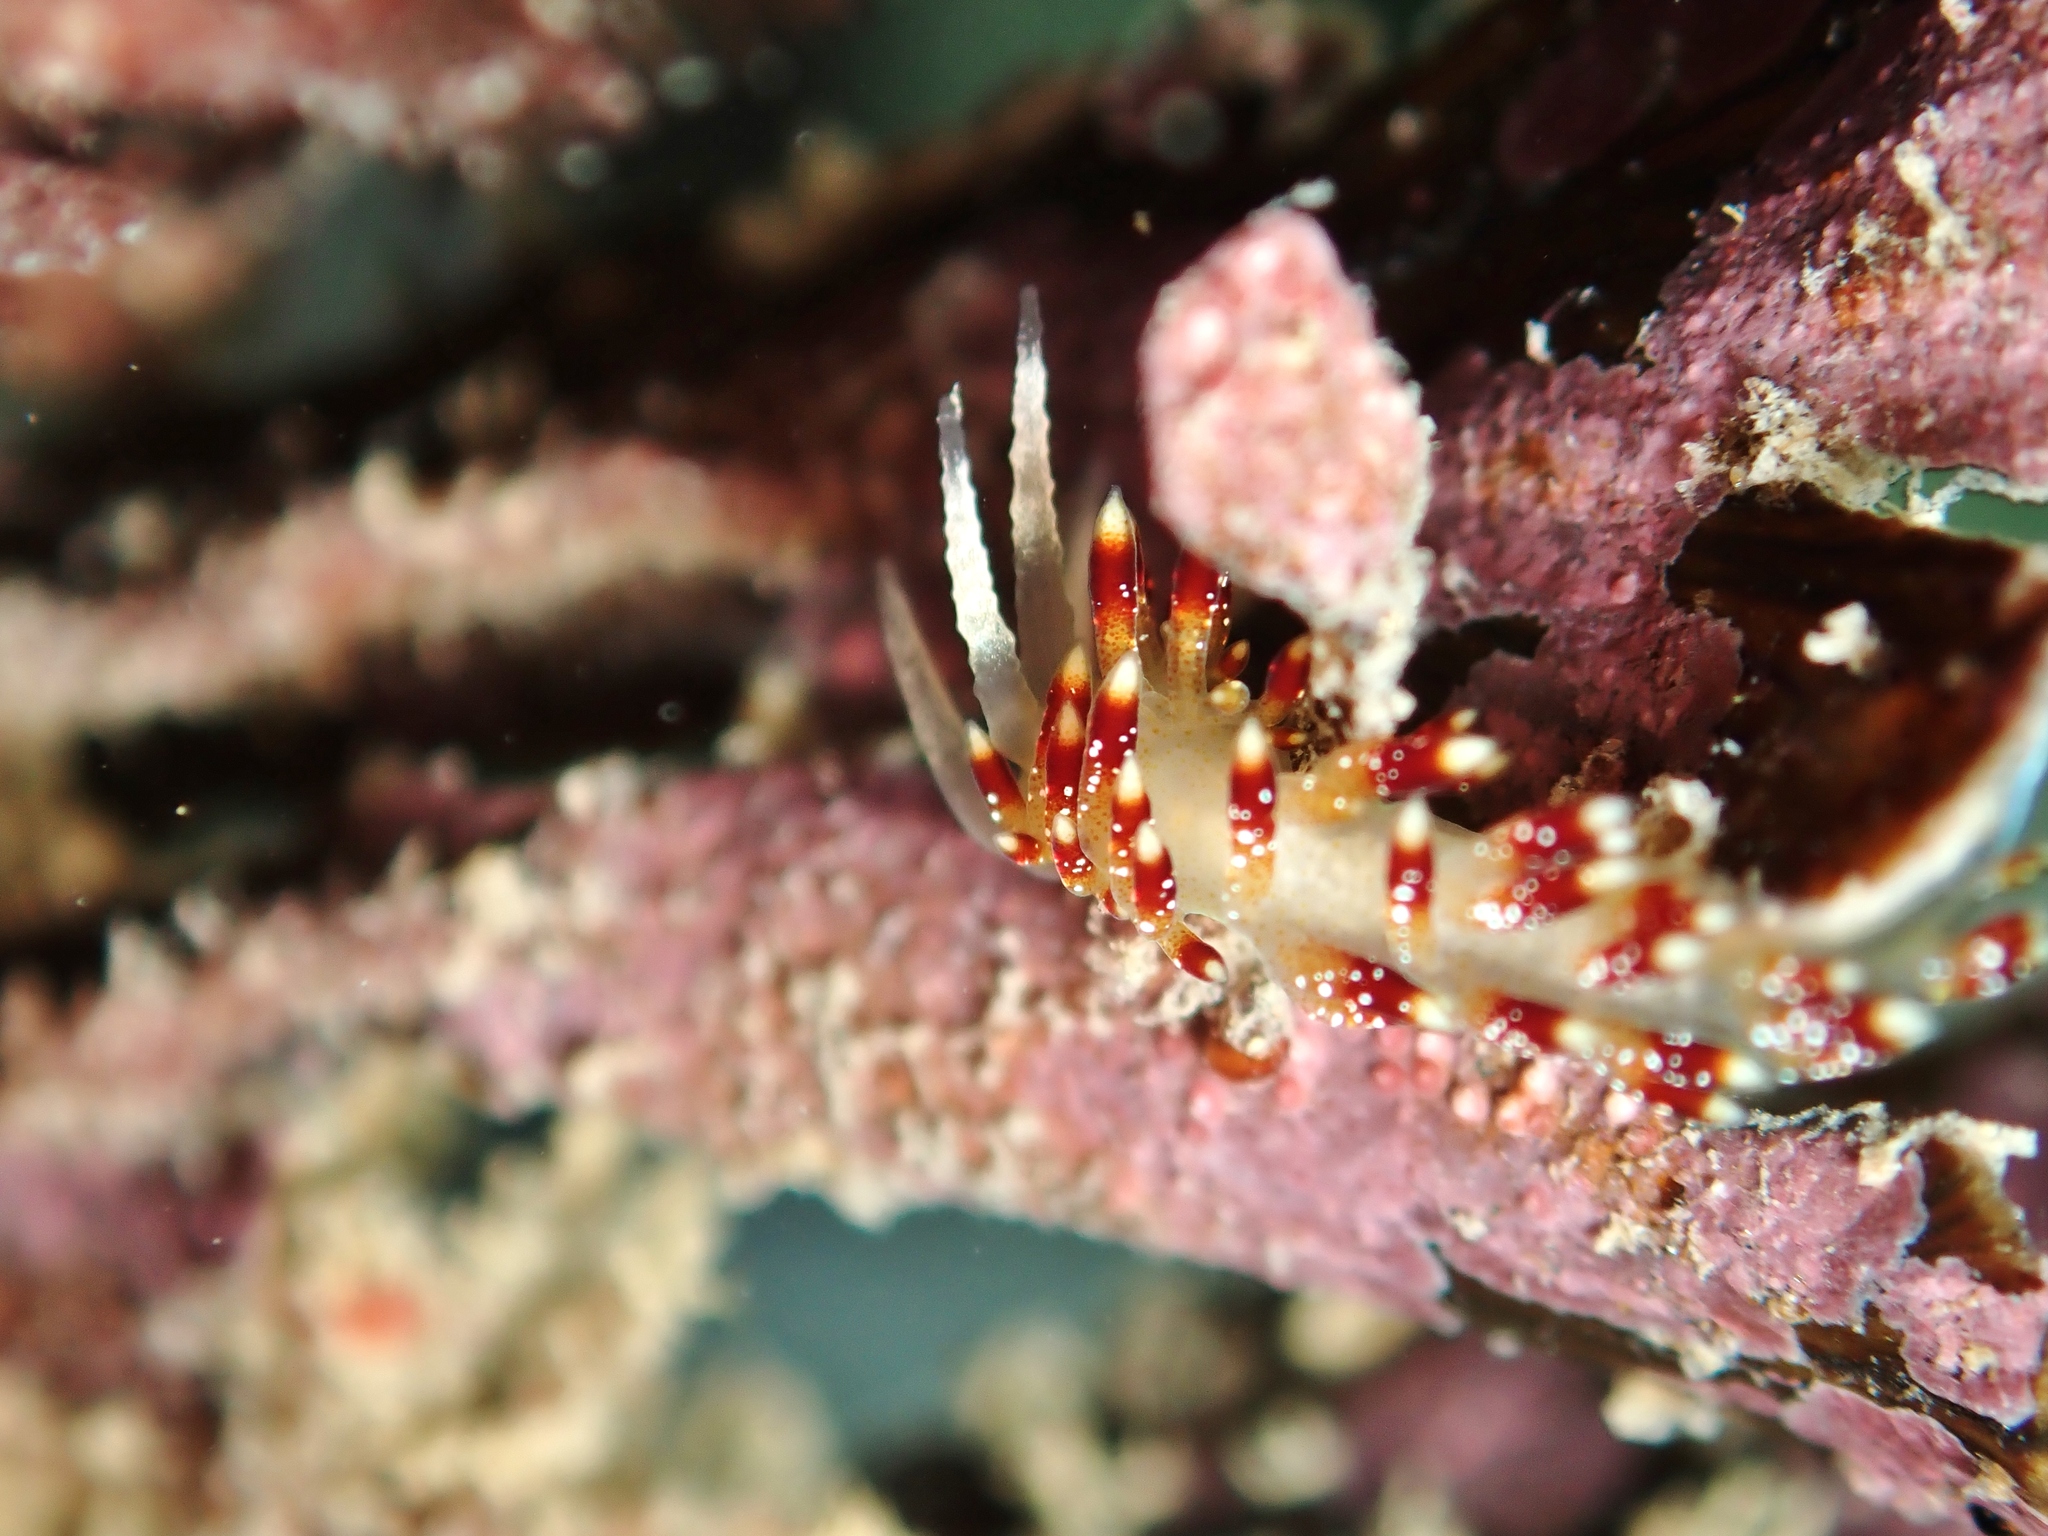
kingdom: Animalia
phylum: Mollusca
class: Gastropoda
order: Nudibranchia
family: Apataidae
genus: Tularia
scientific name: Tularia bractea
